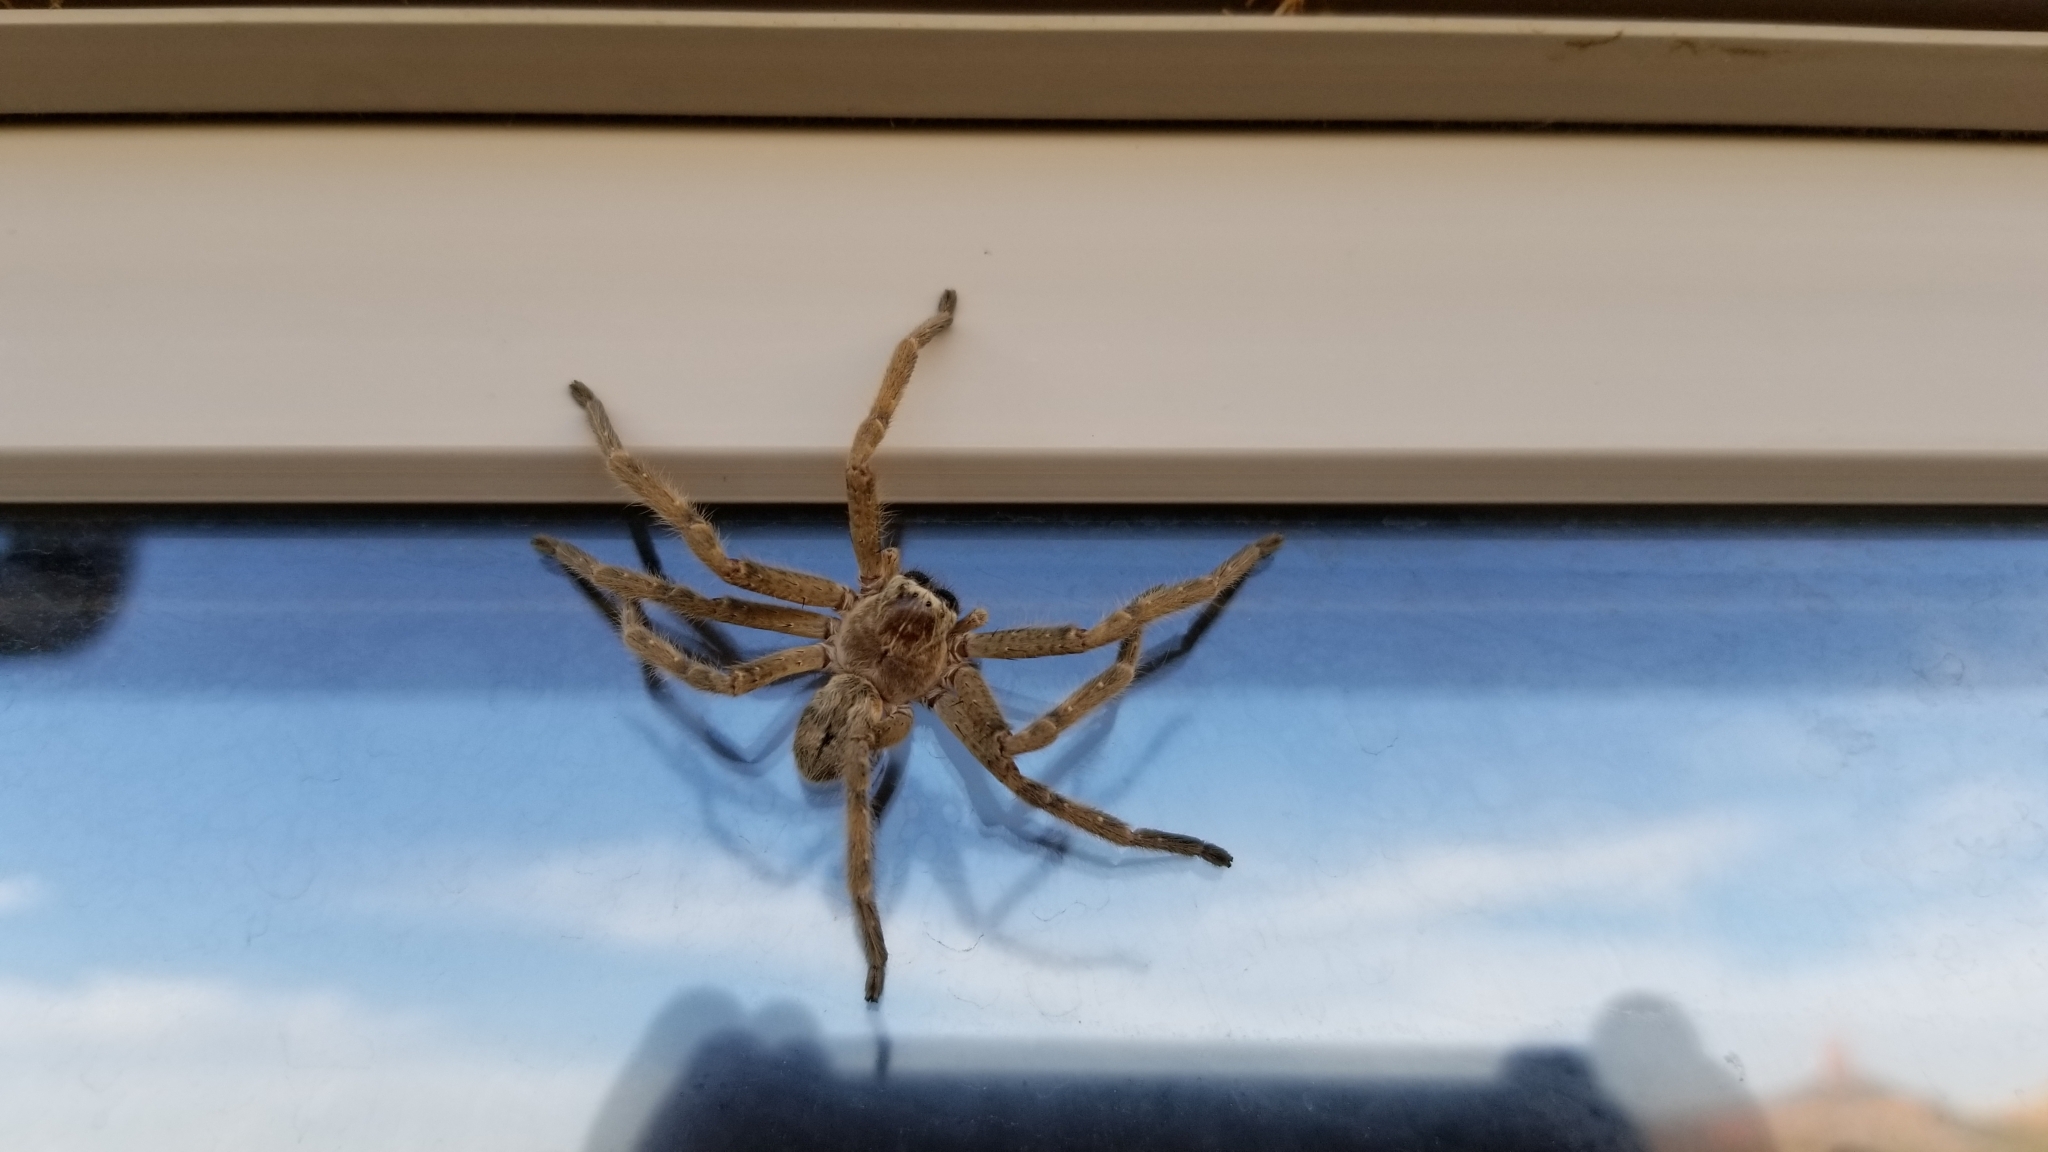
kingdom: Animalia
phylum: Arthropoda
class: Arachnida
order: Araneae
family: Sparassidae
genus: Olios
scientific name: Olios giganteus
